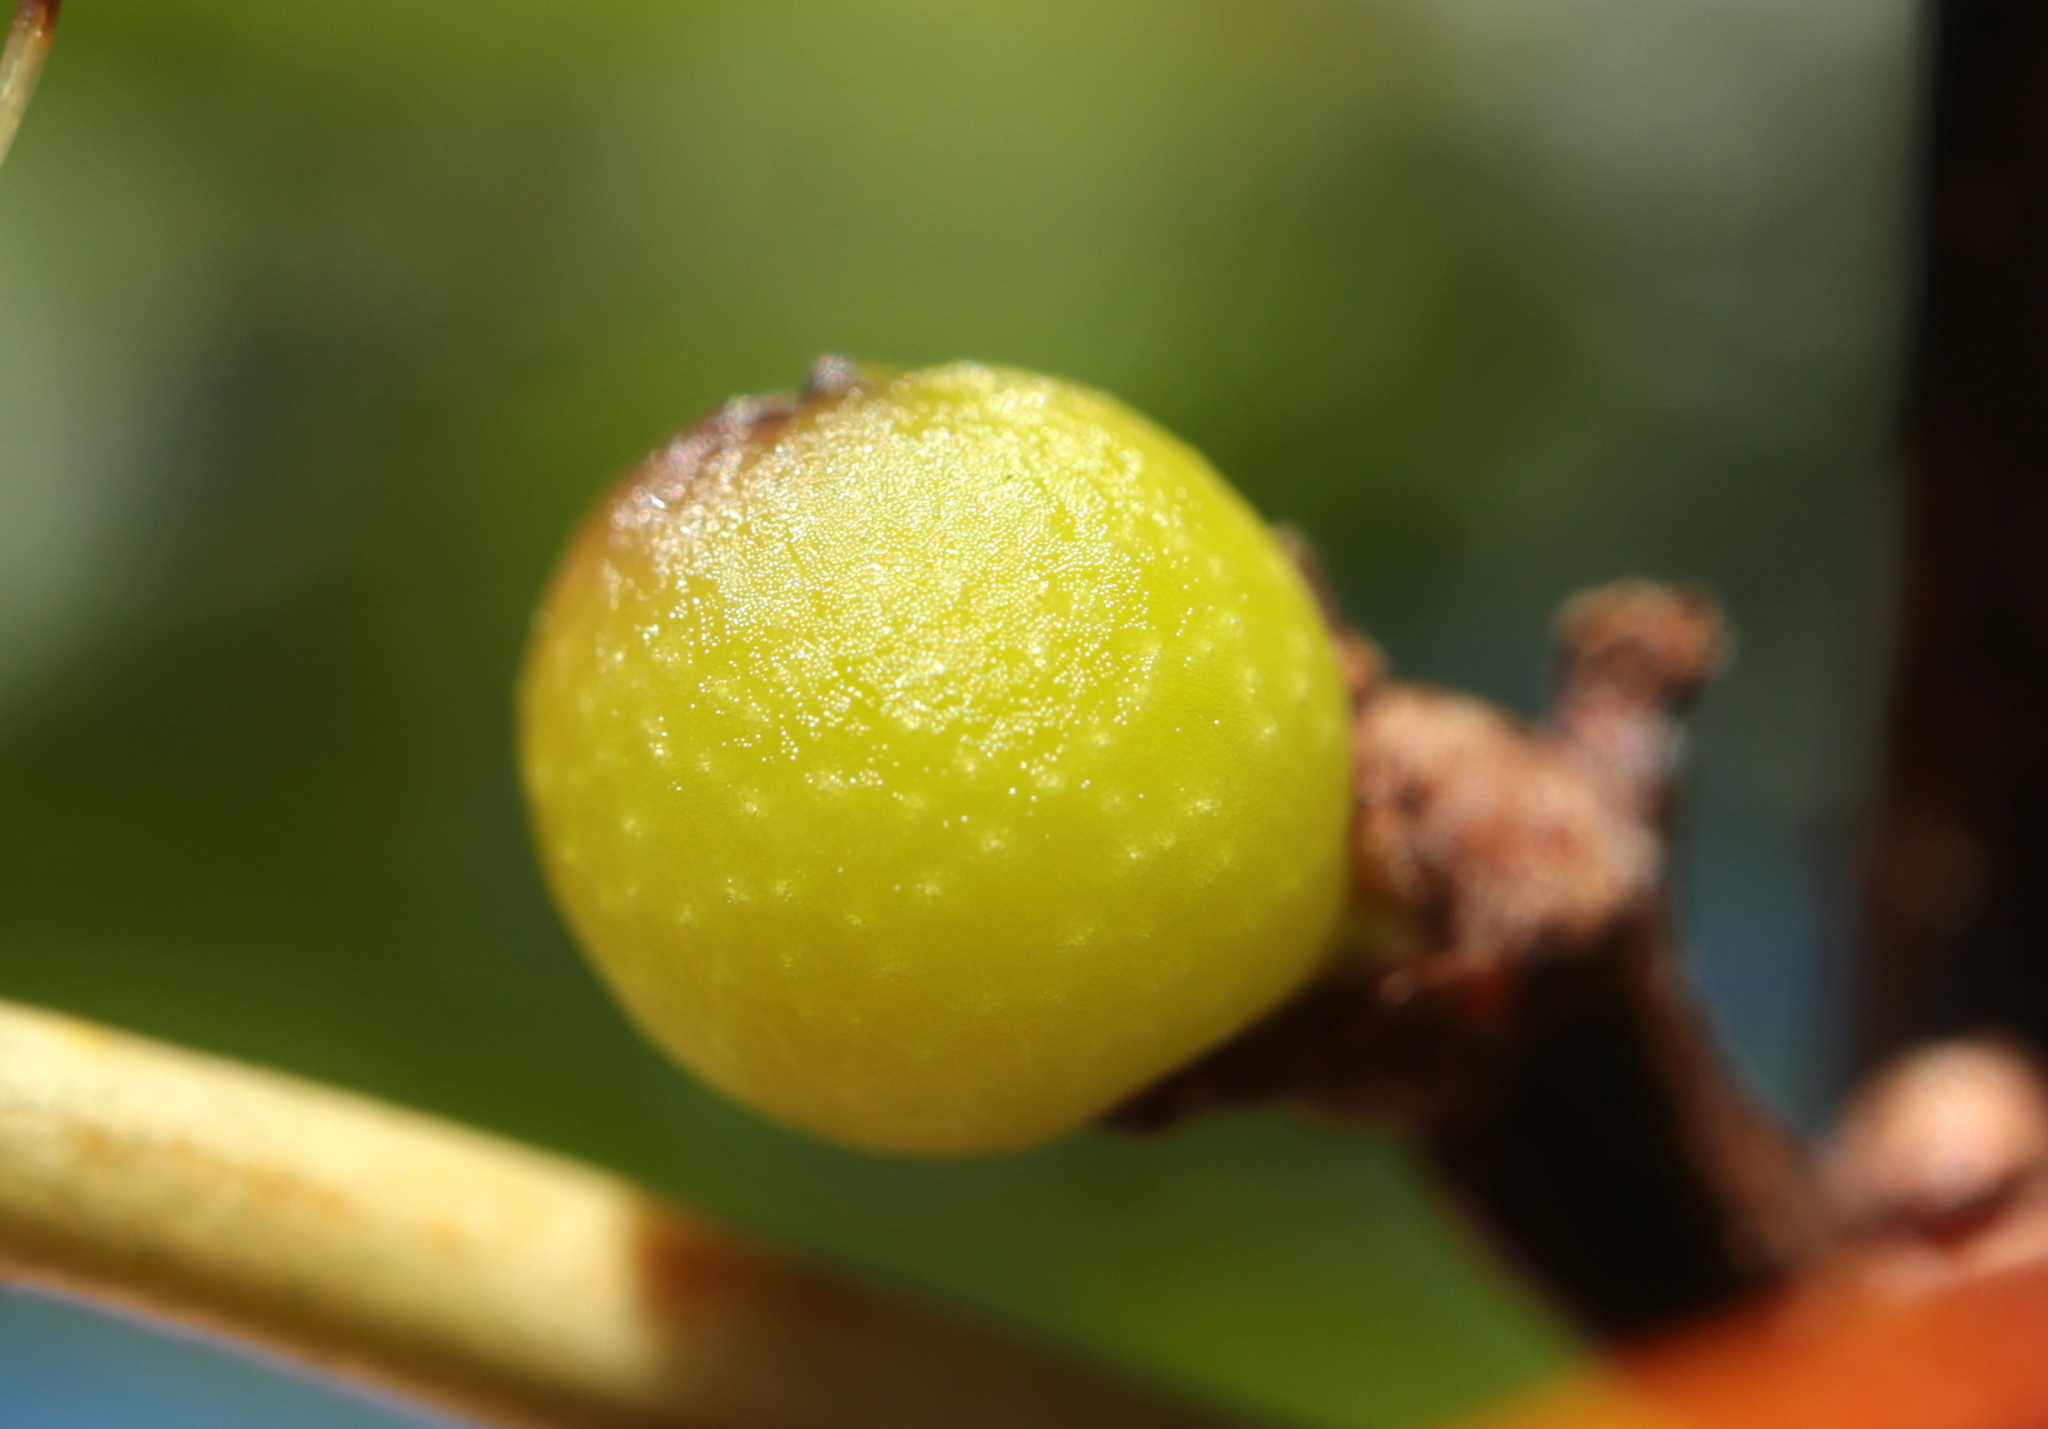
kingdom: Animalia
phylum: Arthropoda
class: Insecta
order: Hymenoptera
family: Cynipidae
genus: Callirhytis
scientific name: Callirhytis
